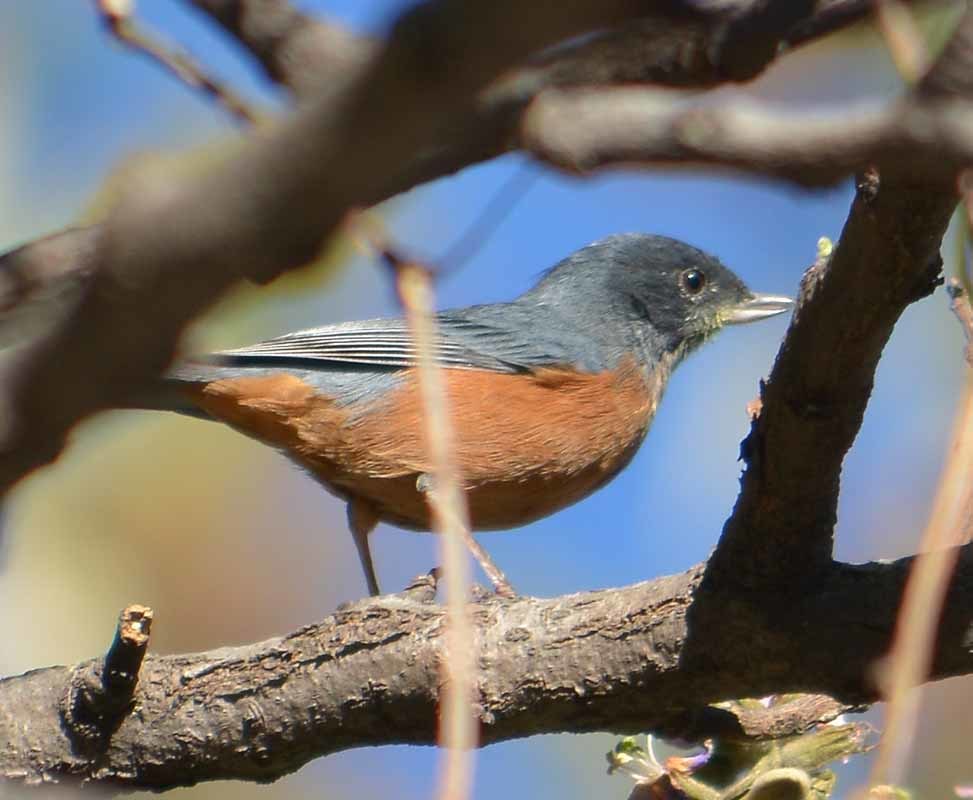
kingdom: Animalia
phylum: Chordata
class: Aves
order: Passeriformes
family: Thraupidae
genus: Diglossa
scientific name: Diglossa baritula
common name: Cinnamon-bellied flowerpiercer
